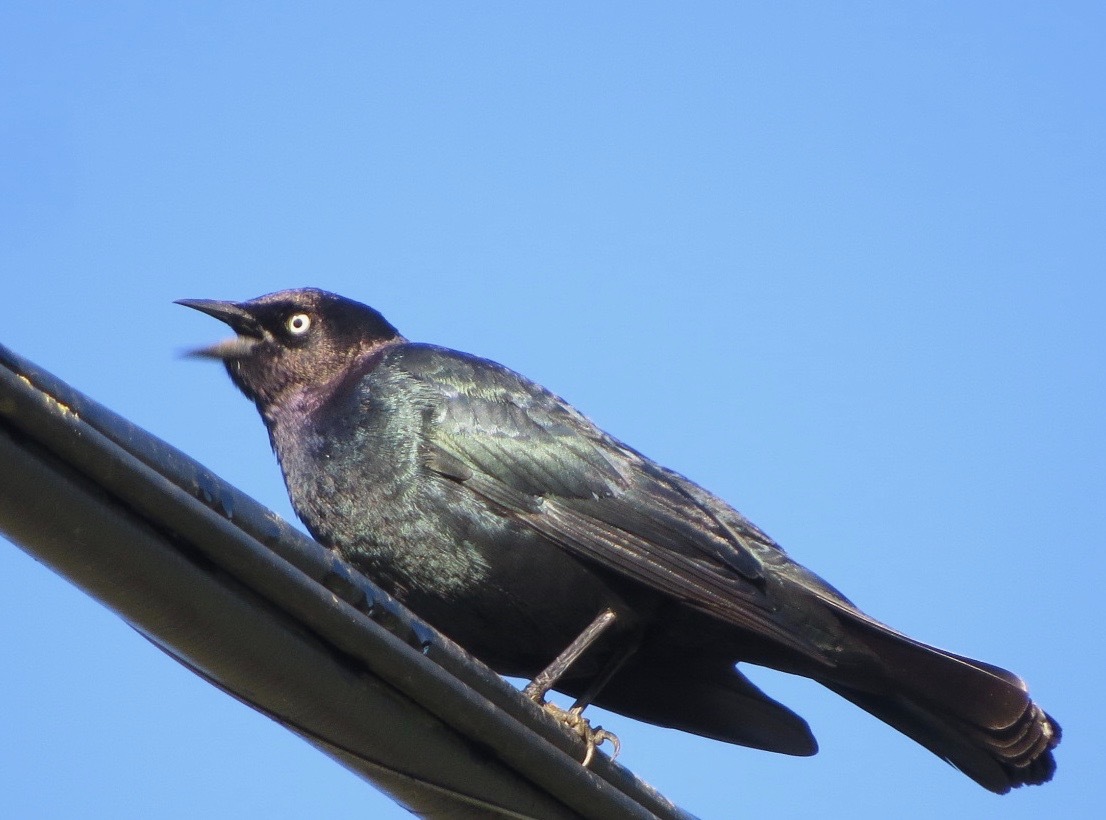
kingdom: Animalia
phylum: Chordata
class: Aves
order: Passeriformes
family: Icteridae
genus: Euphagus
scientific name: Euphagus cyanocephalus
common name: Brewer's blackbird
